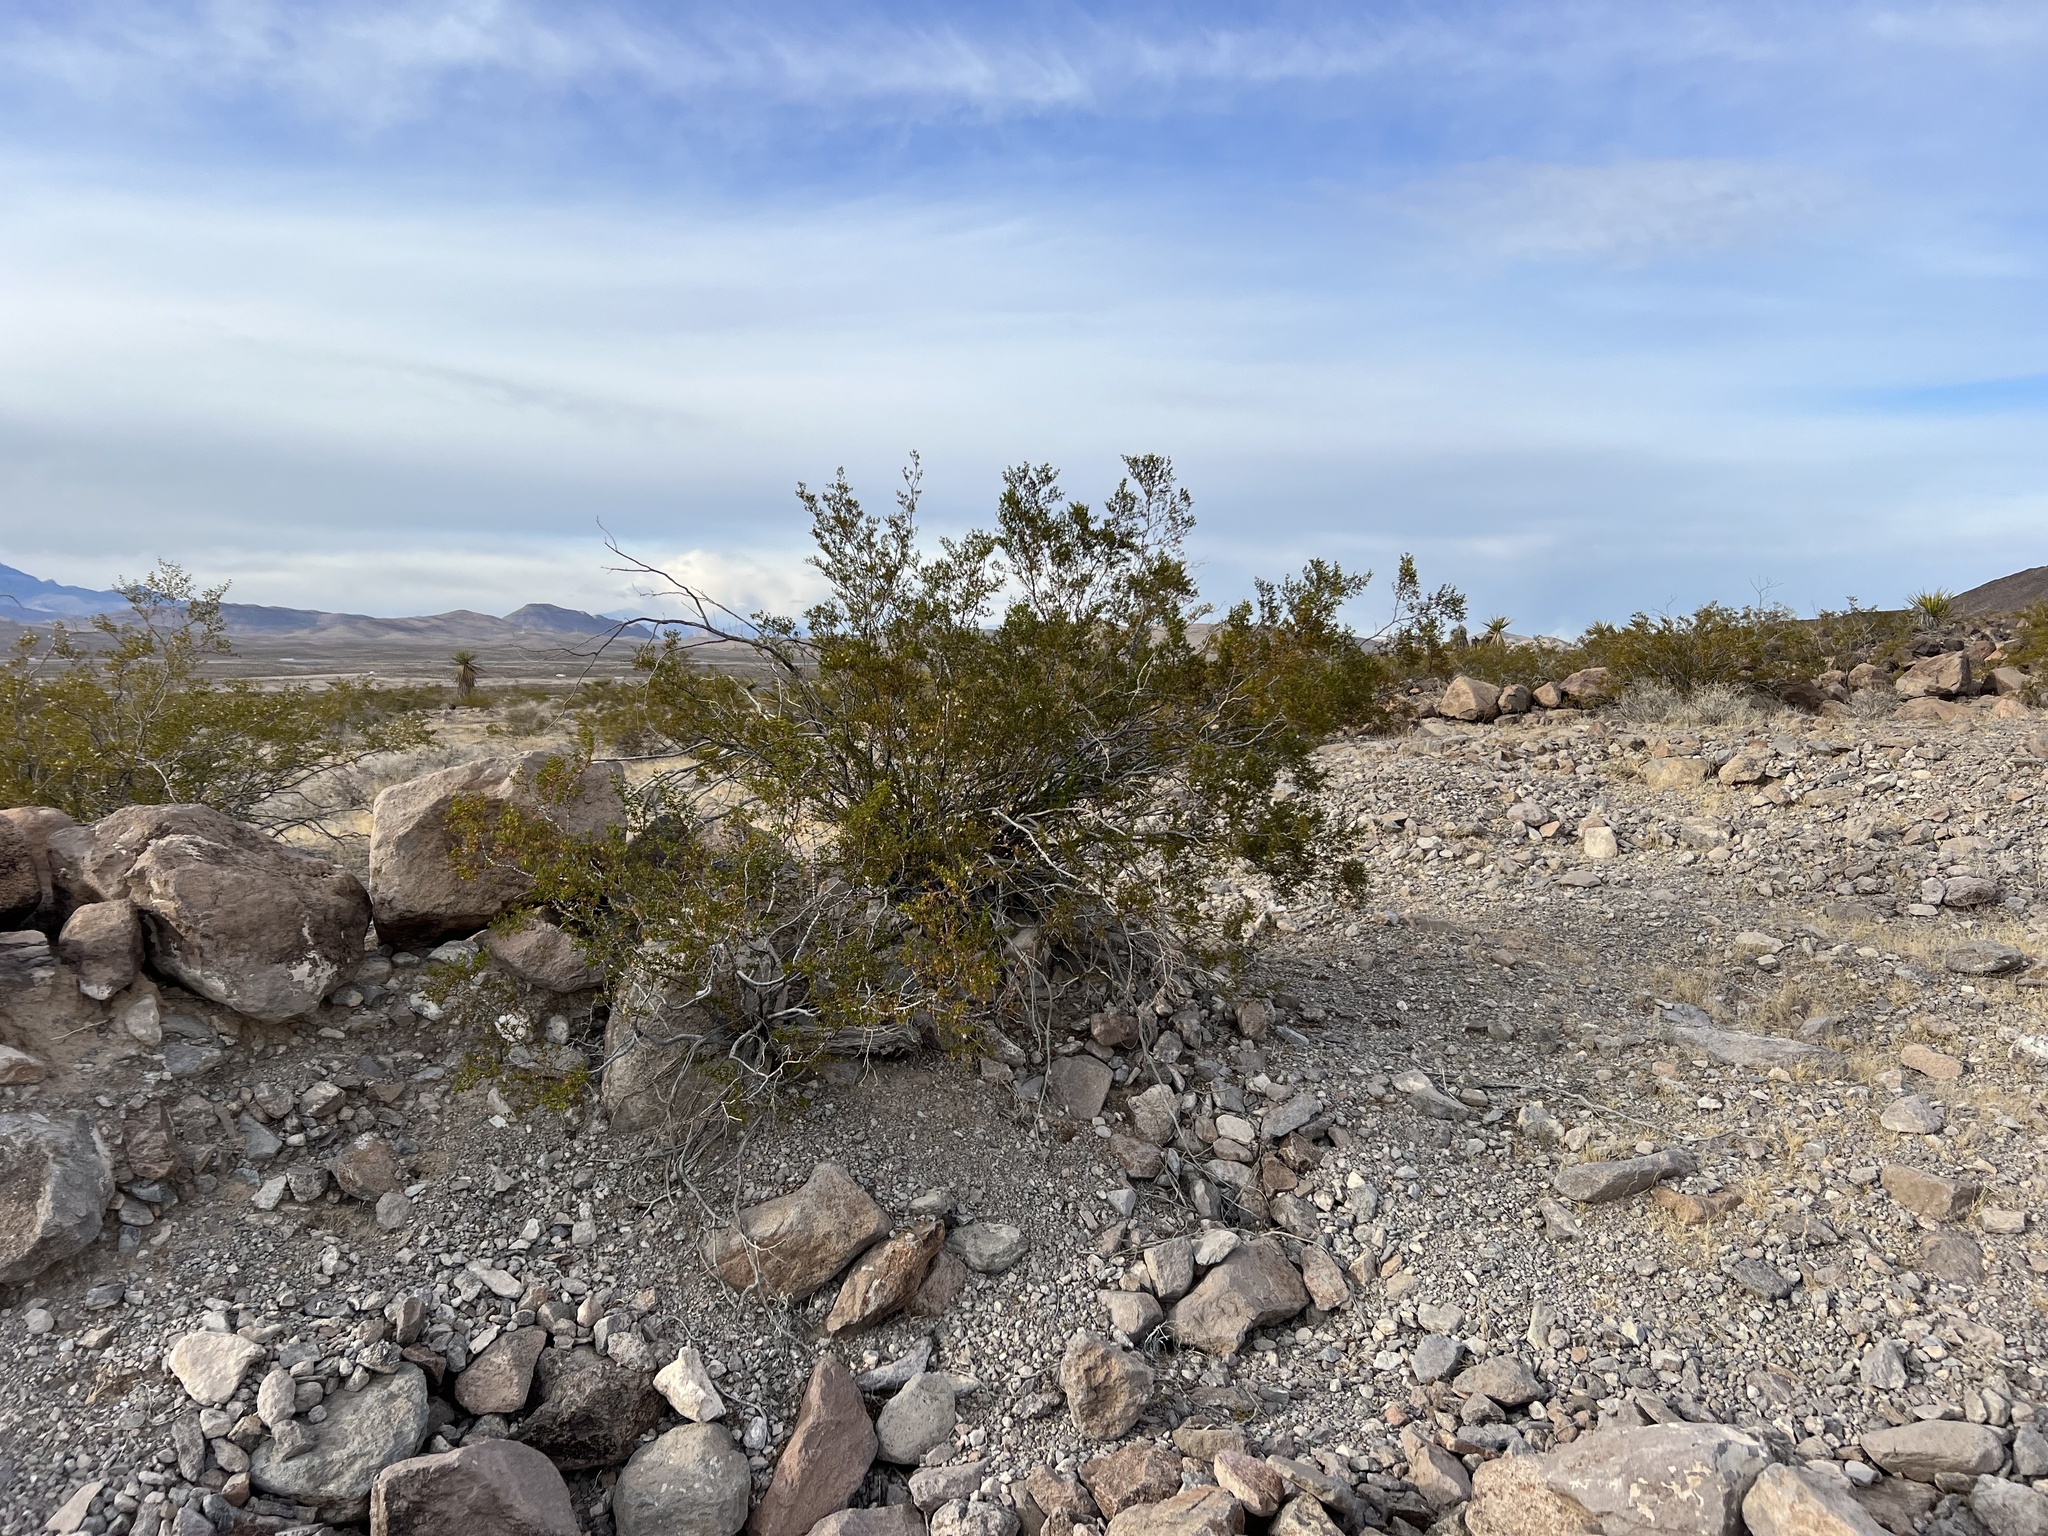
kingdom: Plantae
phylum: Tracheophyta
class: Magnoliopsida
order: Zygophyllales
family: Zygophyllaceae
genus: Larrea
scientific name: Larrea tridentata
